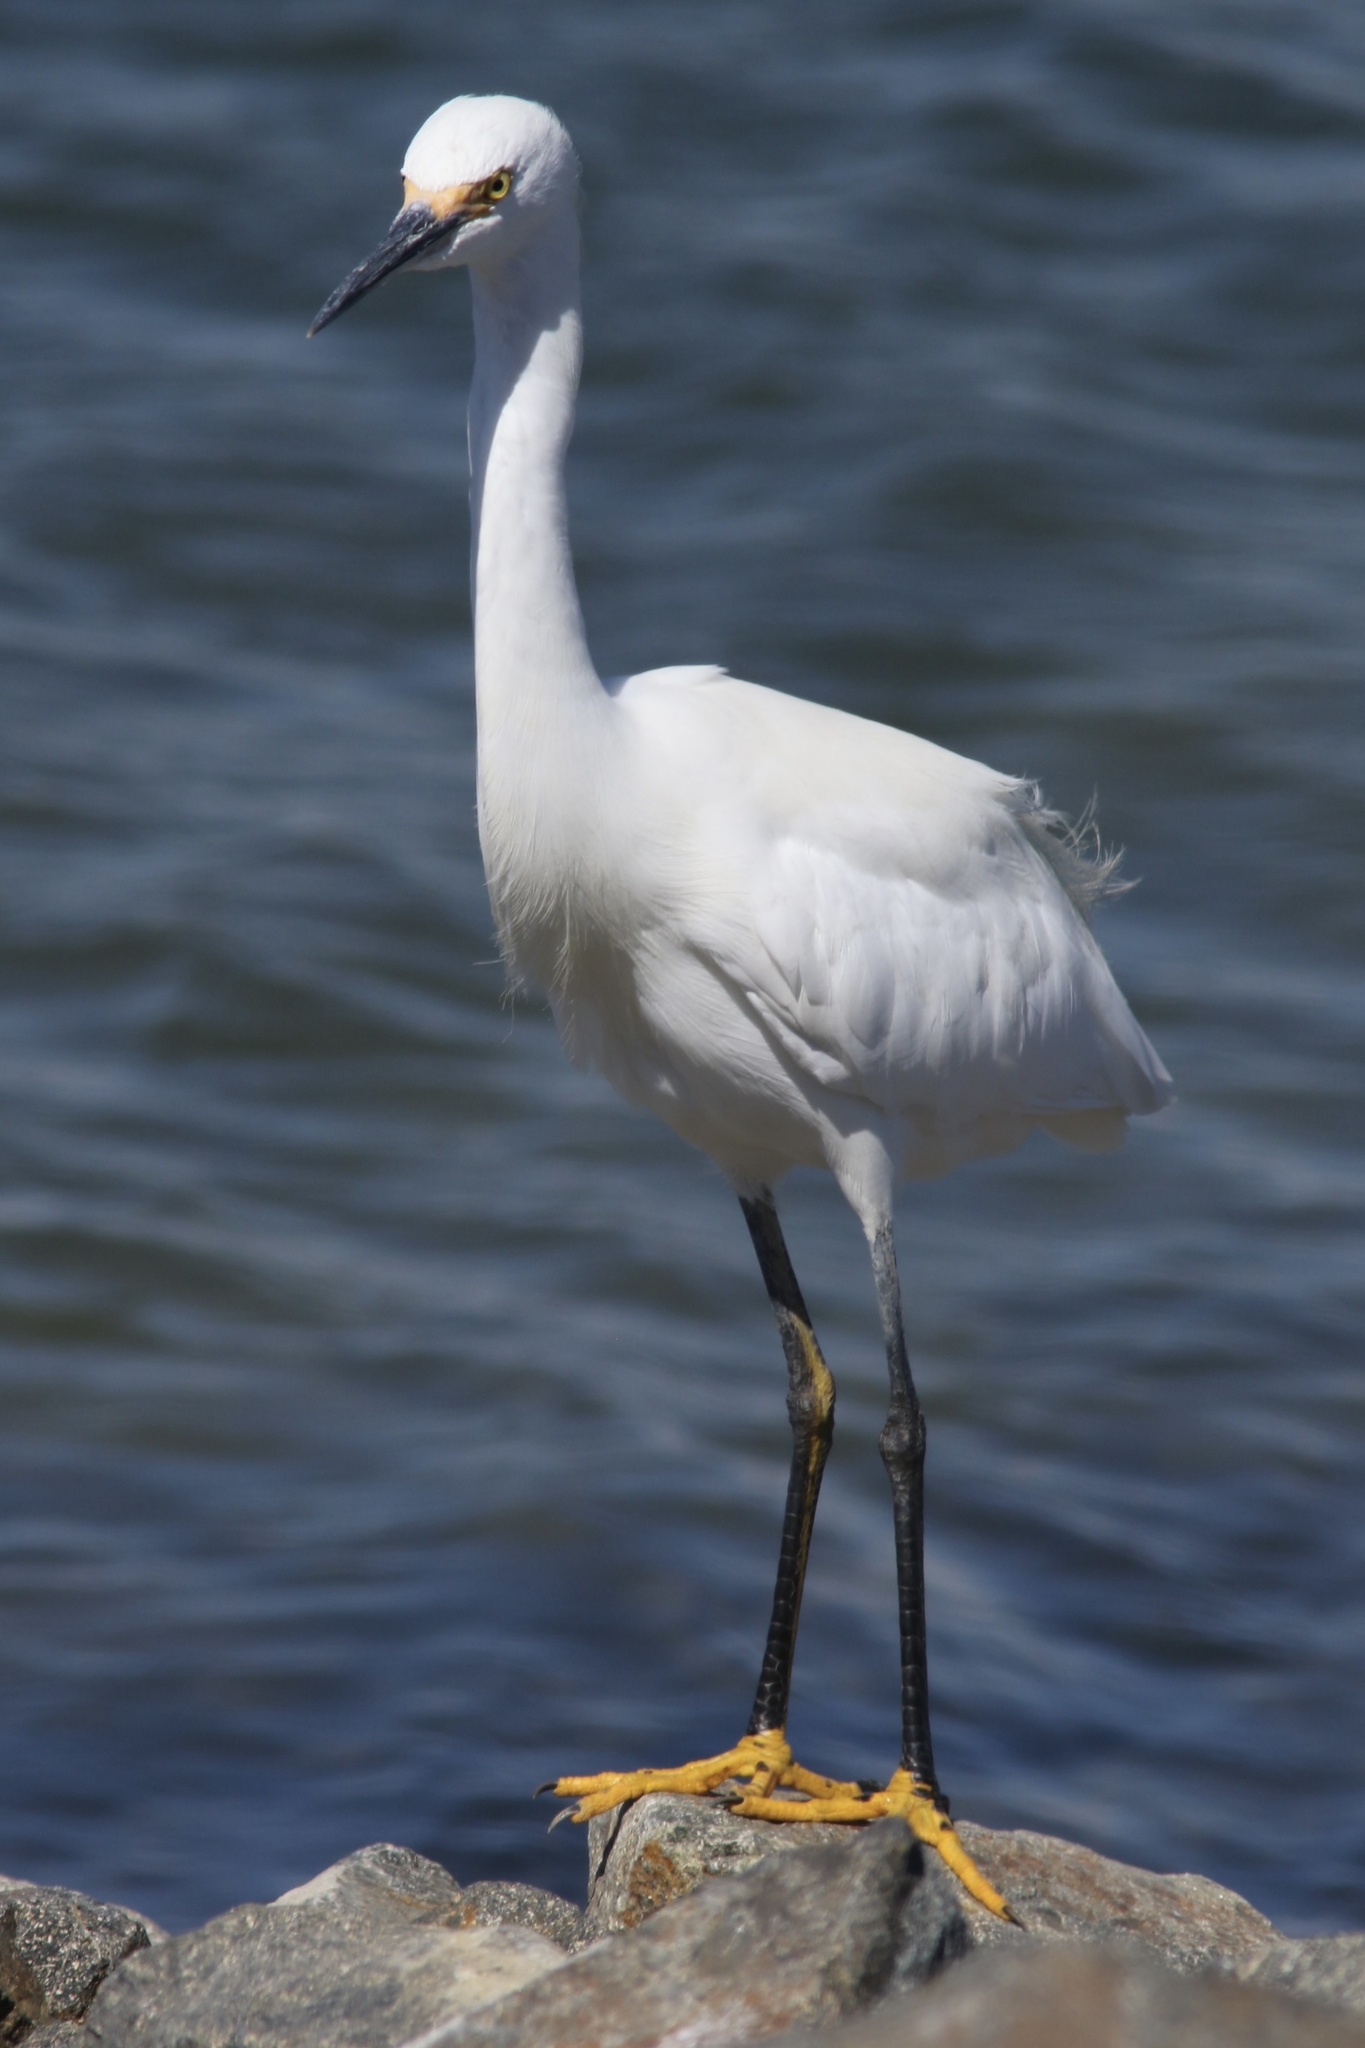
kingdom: Animalia
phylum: Chordata
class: Aves
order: Pelecaniformes
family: Ardeidae
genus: Egretta
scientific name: Egretta thula
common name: Snowy egret
